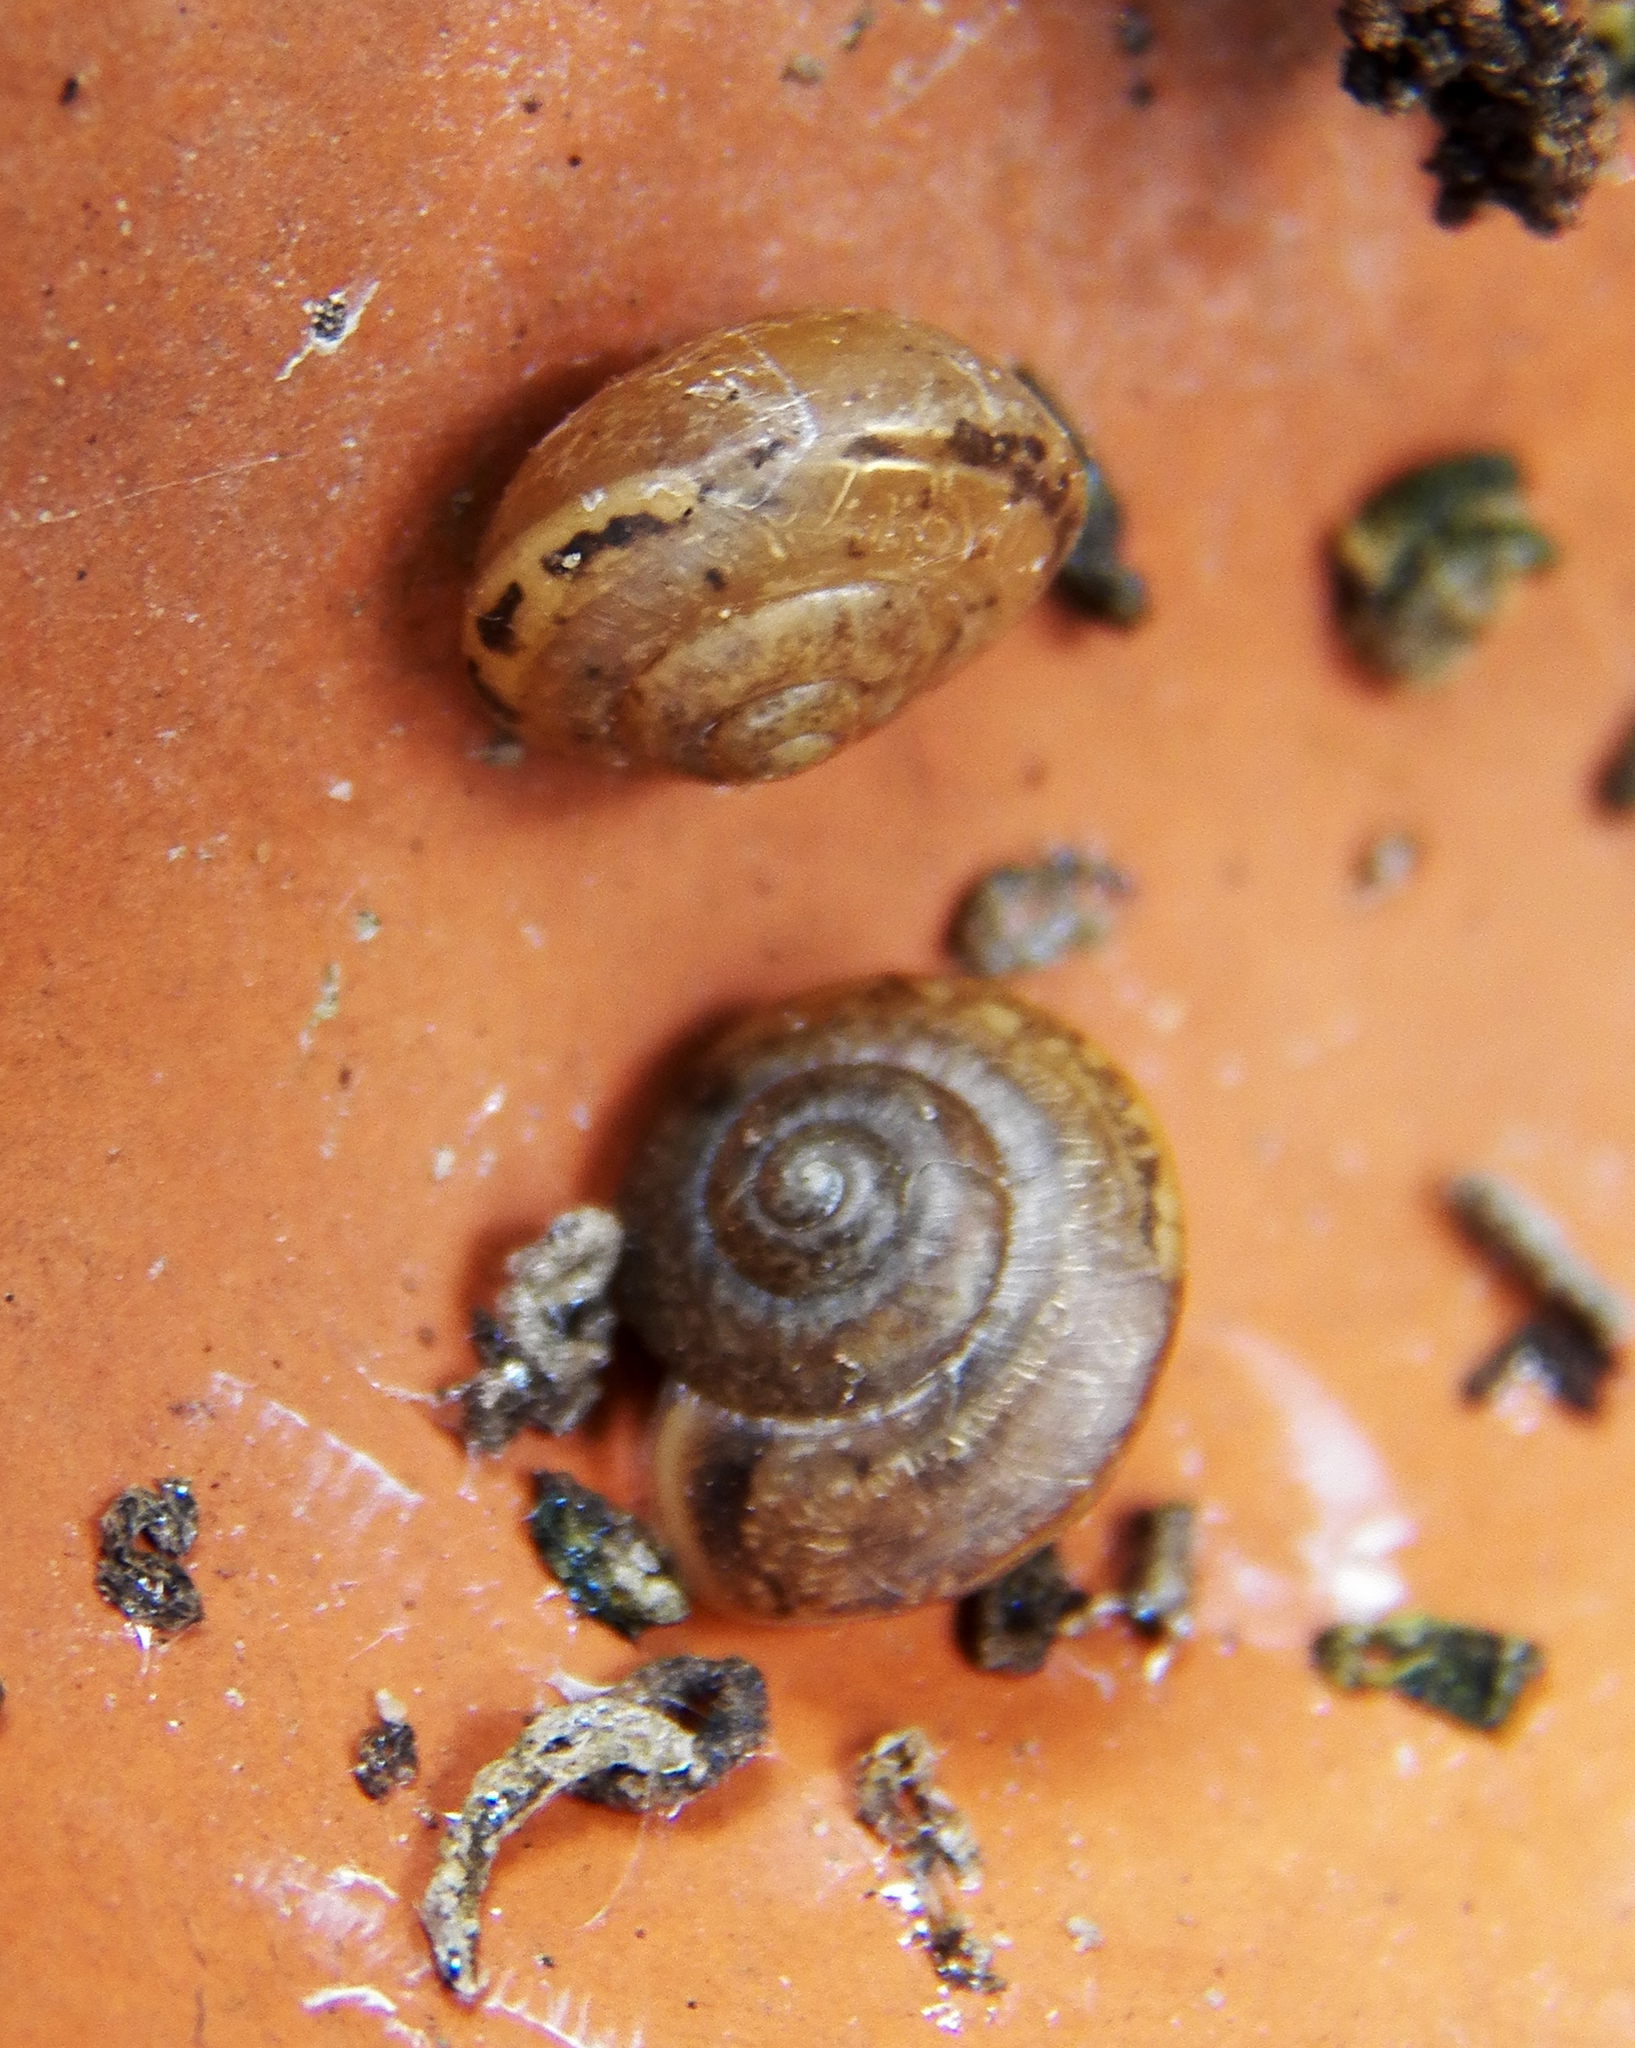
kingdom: Animalia
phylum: Mollusca
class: Gastropoda
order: Stylommatophora
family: Camaenidae
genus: Bradybaena
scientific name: Bradybaena similaris
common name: Asian trampsnail
